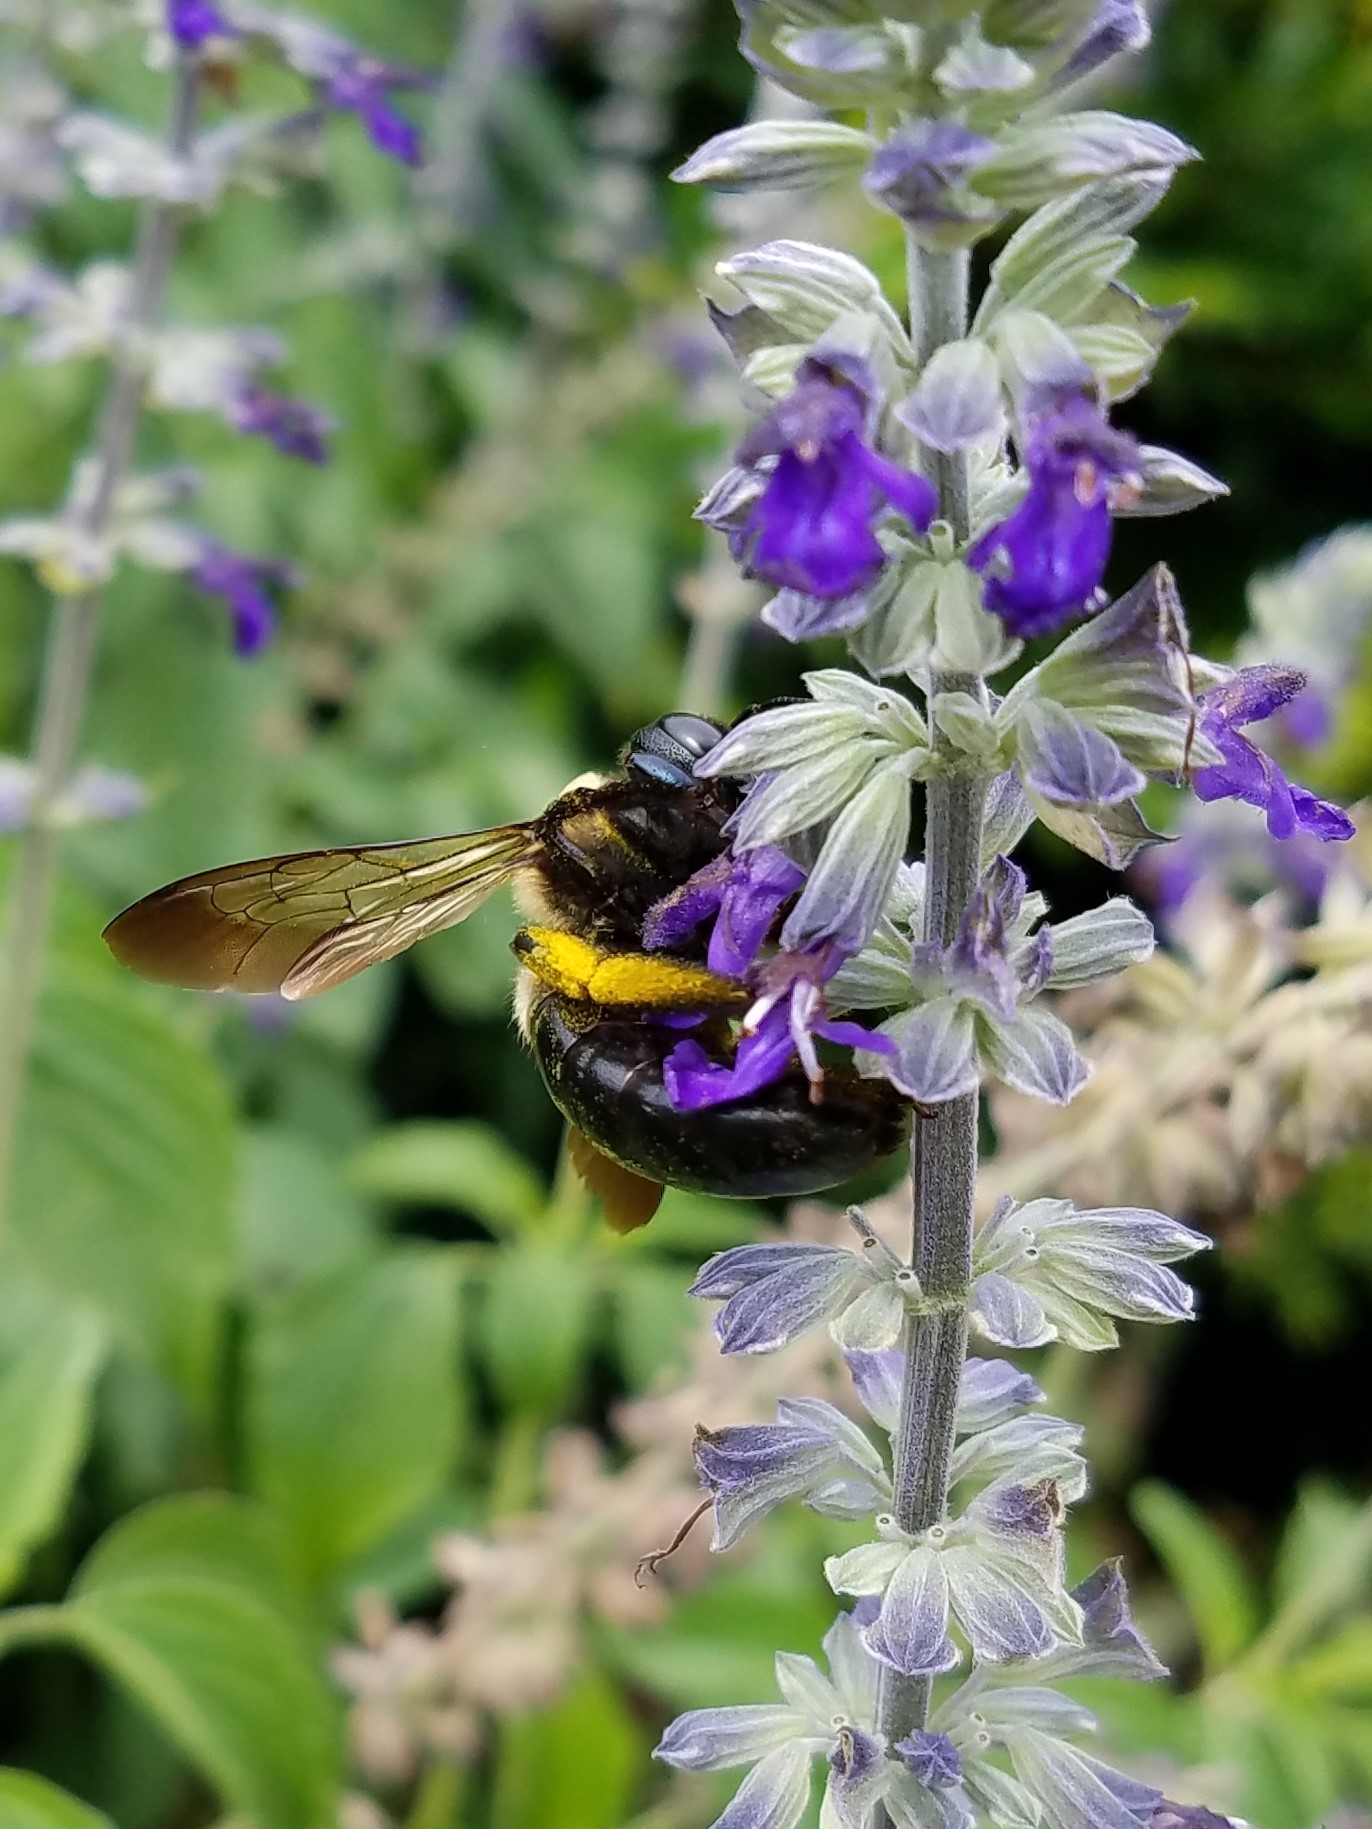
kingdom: Animalia
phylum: Arthropoda
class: Insecta
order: Hymenoptera
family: Apidae
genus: Xylocopa
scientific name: Xylocopa virginica
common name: Carpenter bee
